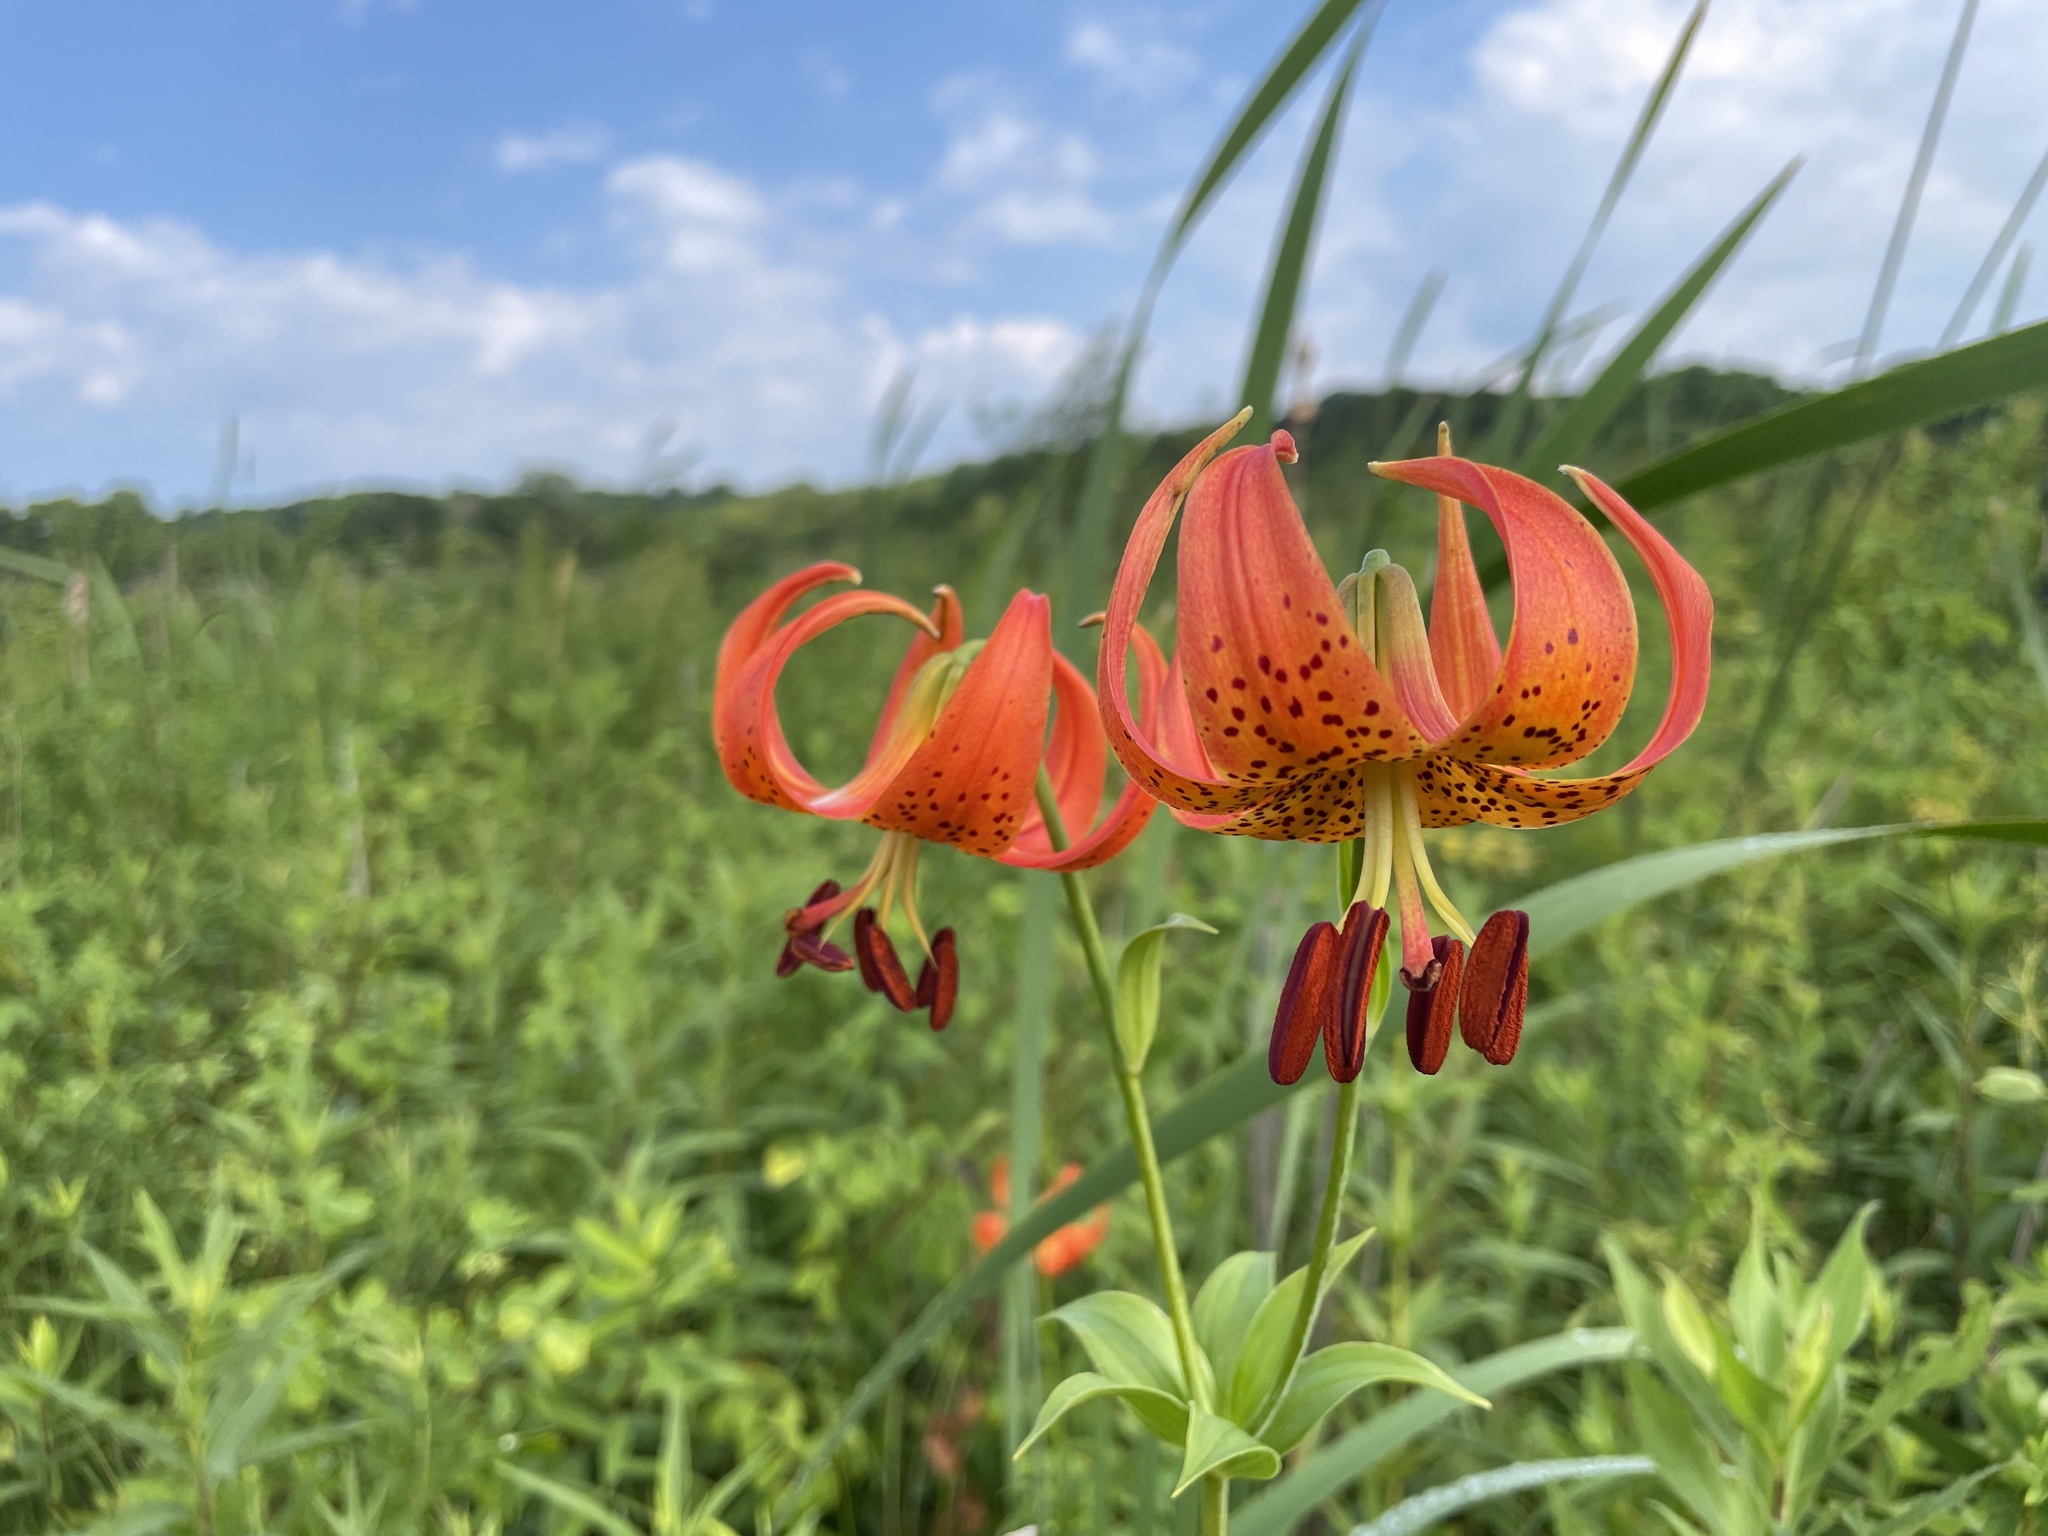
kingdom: Plantae
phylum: Tracheophyta
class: Liliopsida
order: Liliales
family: Liliaceae
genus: Lilium
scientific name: Lilium michiganense
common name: Michigan lily
